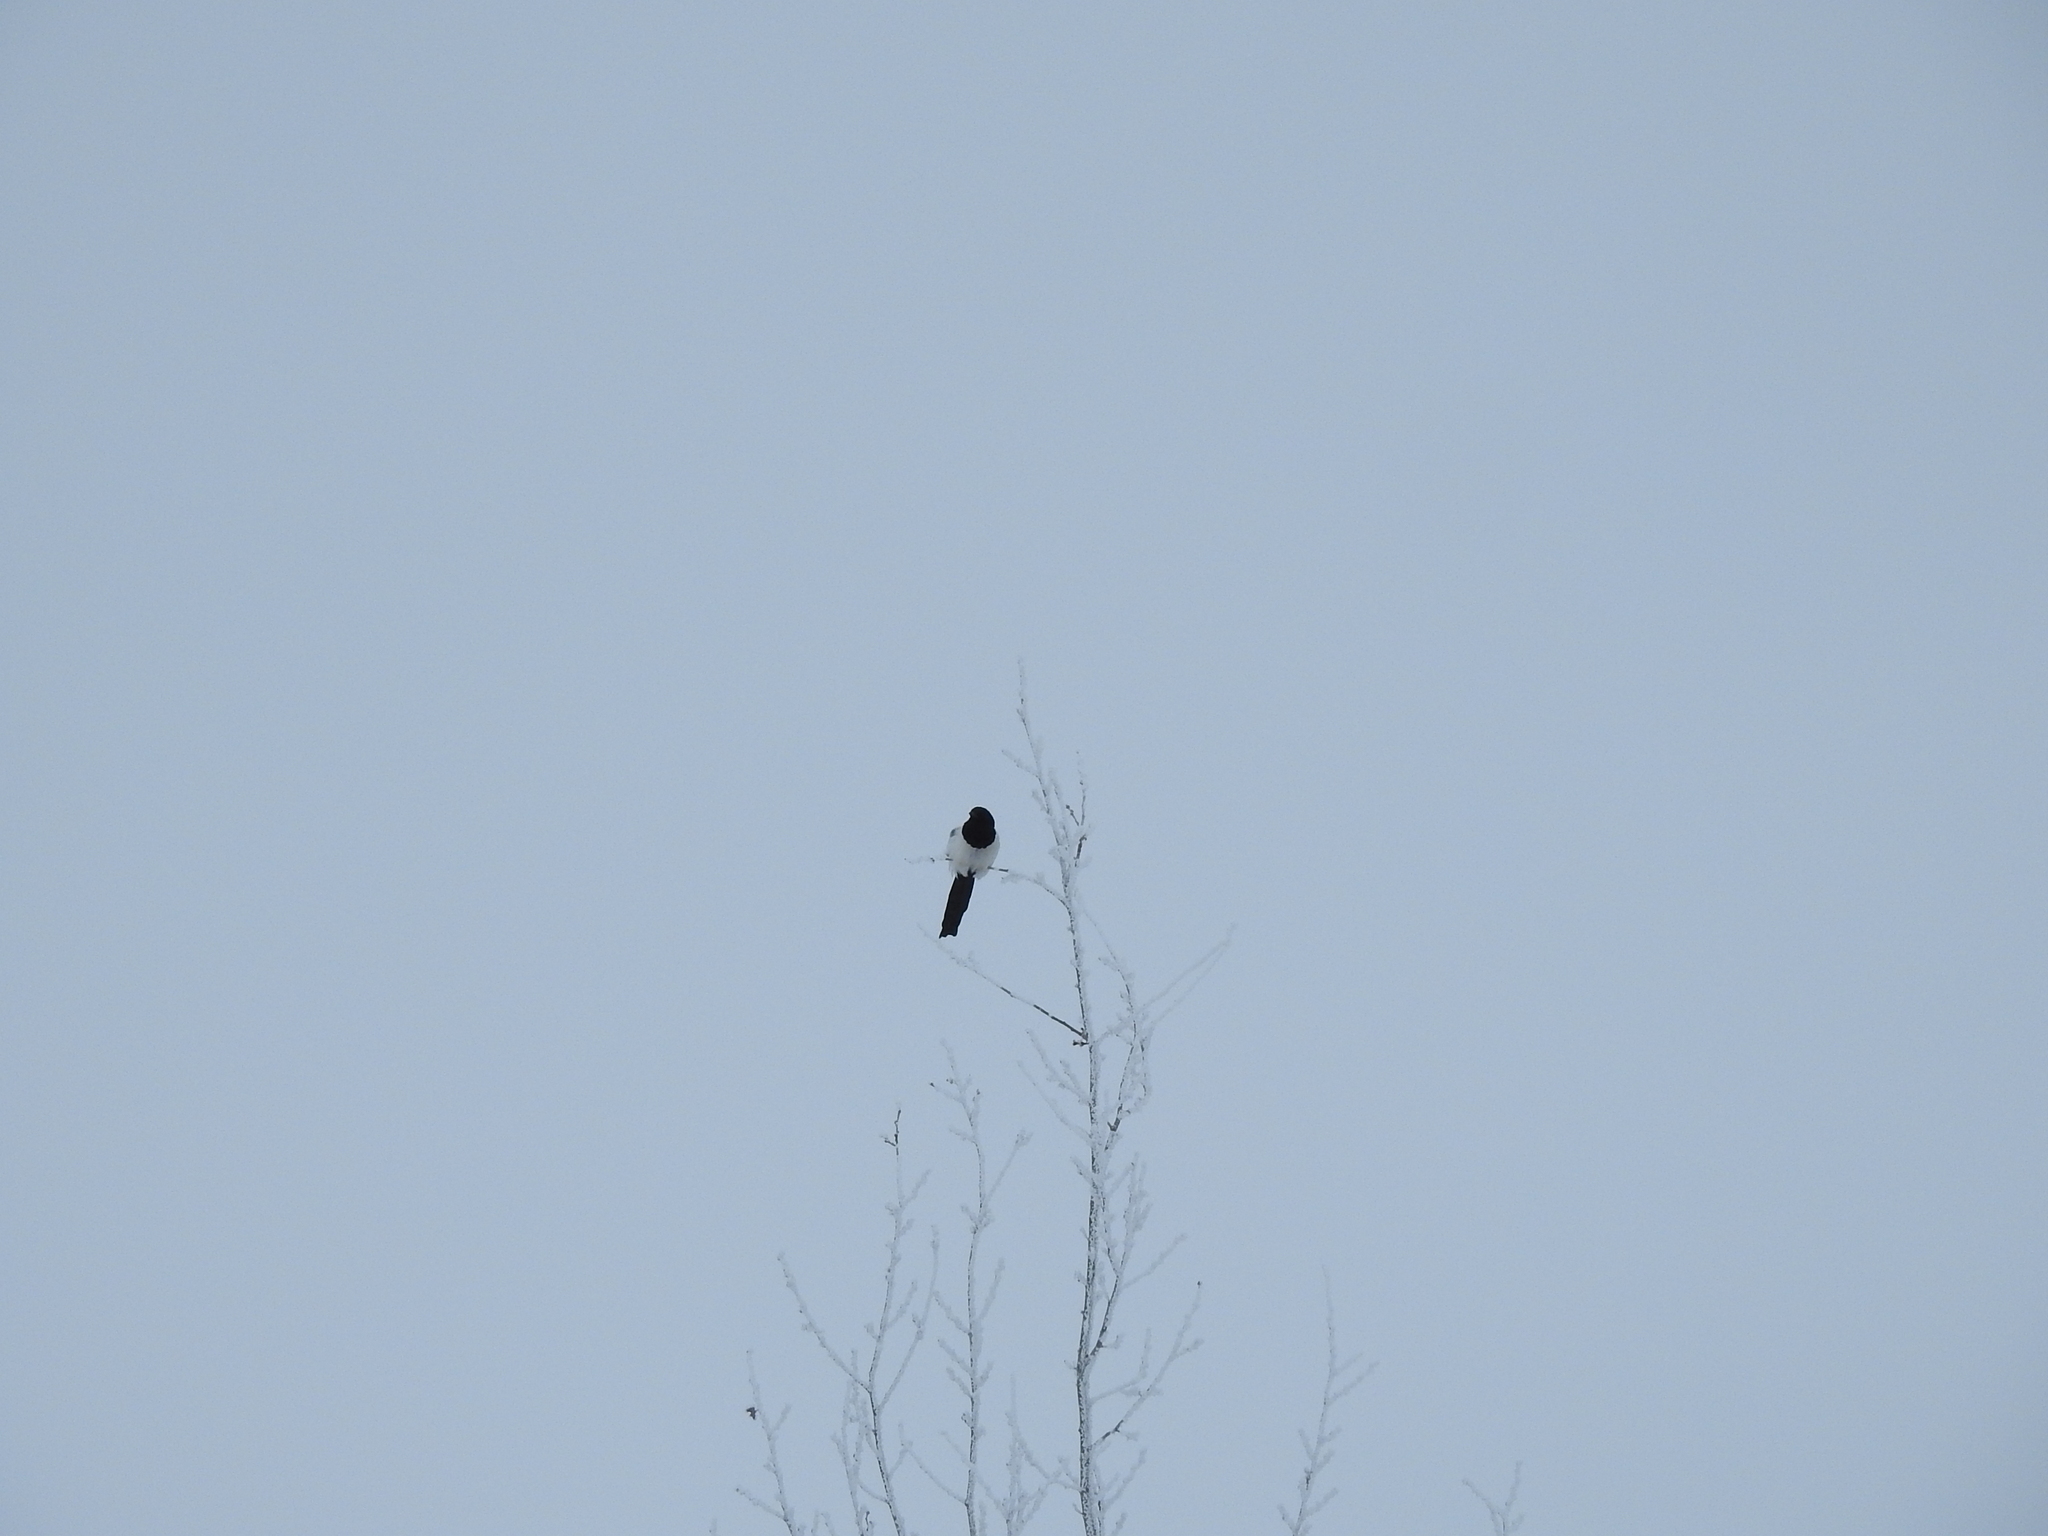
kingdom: Animalia
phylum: Chordata
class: Aves
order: Passeriformes
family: Corvidae
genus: Pica
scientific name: Pica pica
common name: Eurasian magpie
